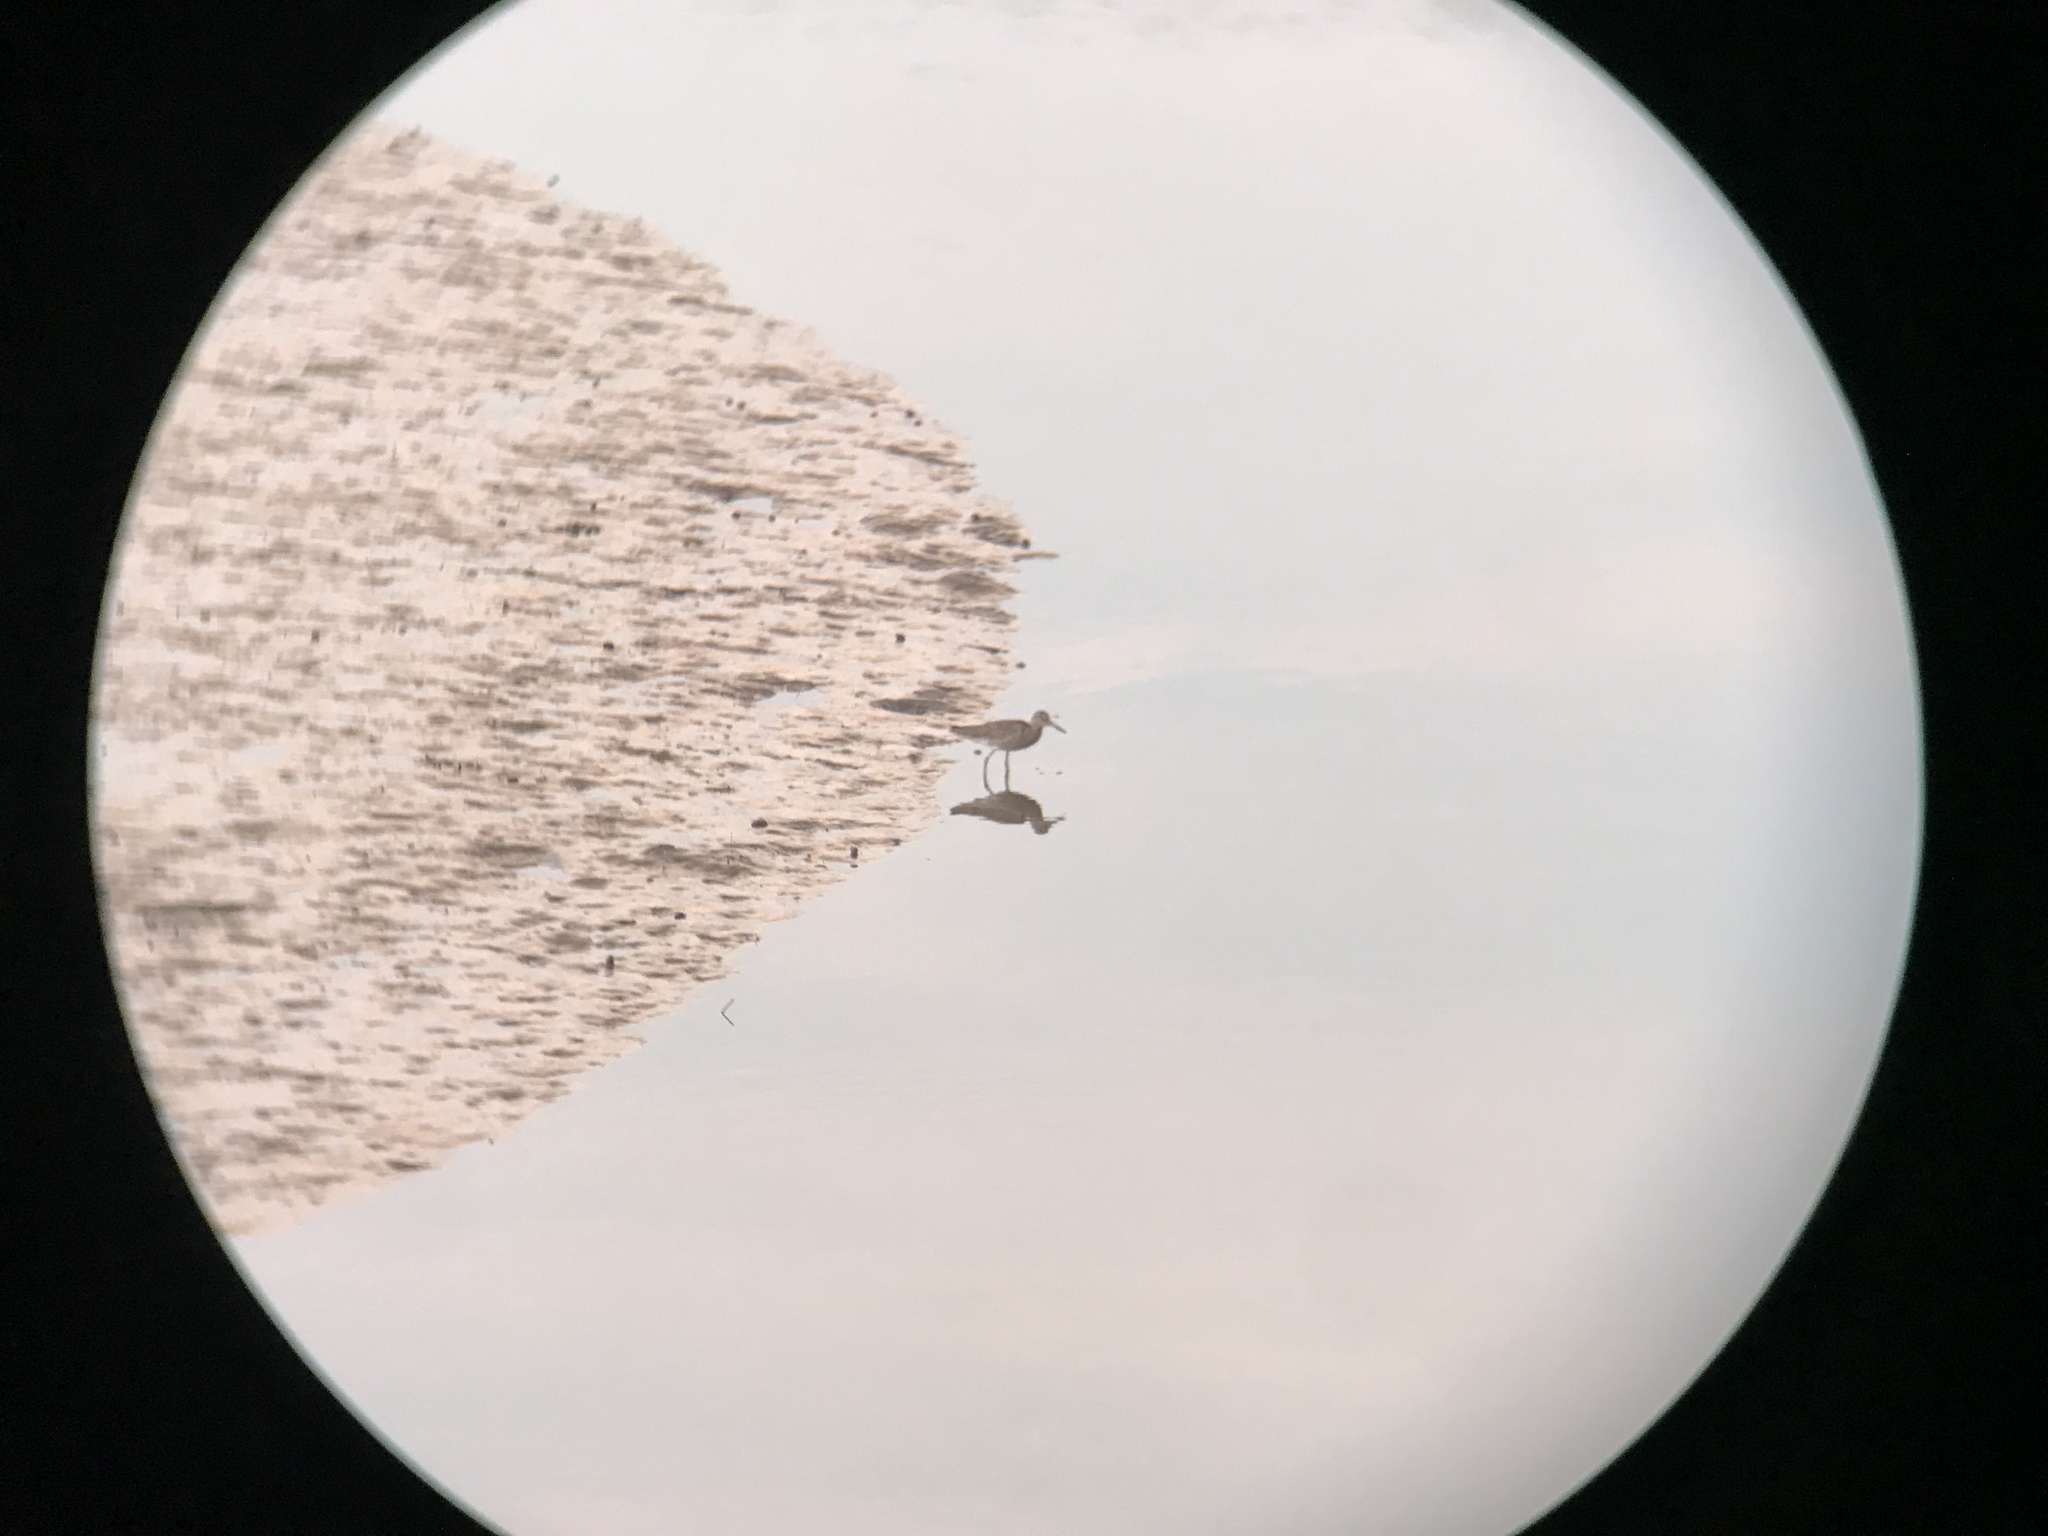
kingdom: Animalia
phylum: Chordata
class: Aves
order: Charadriiformes
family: Scolopacidae
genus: Tringa
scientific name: Tringa semipalmata
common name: Willet
